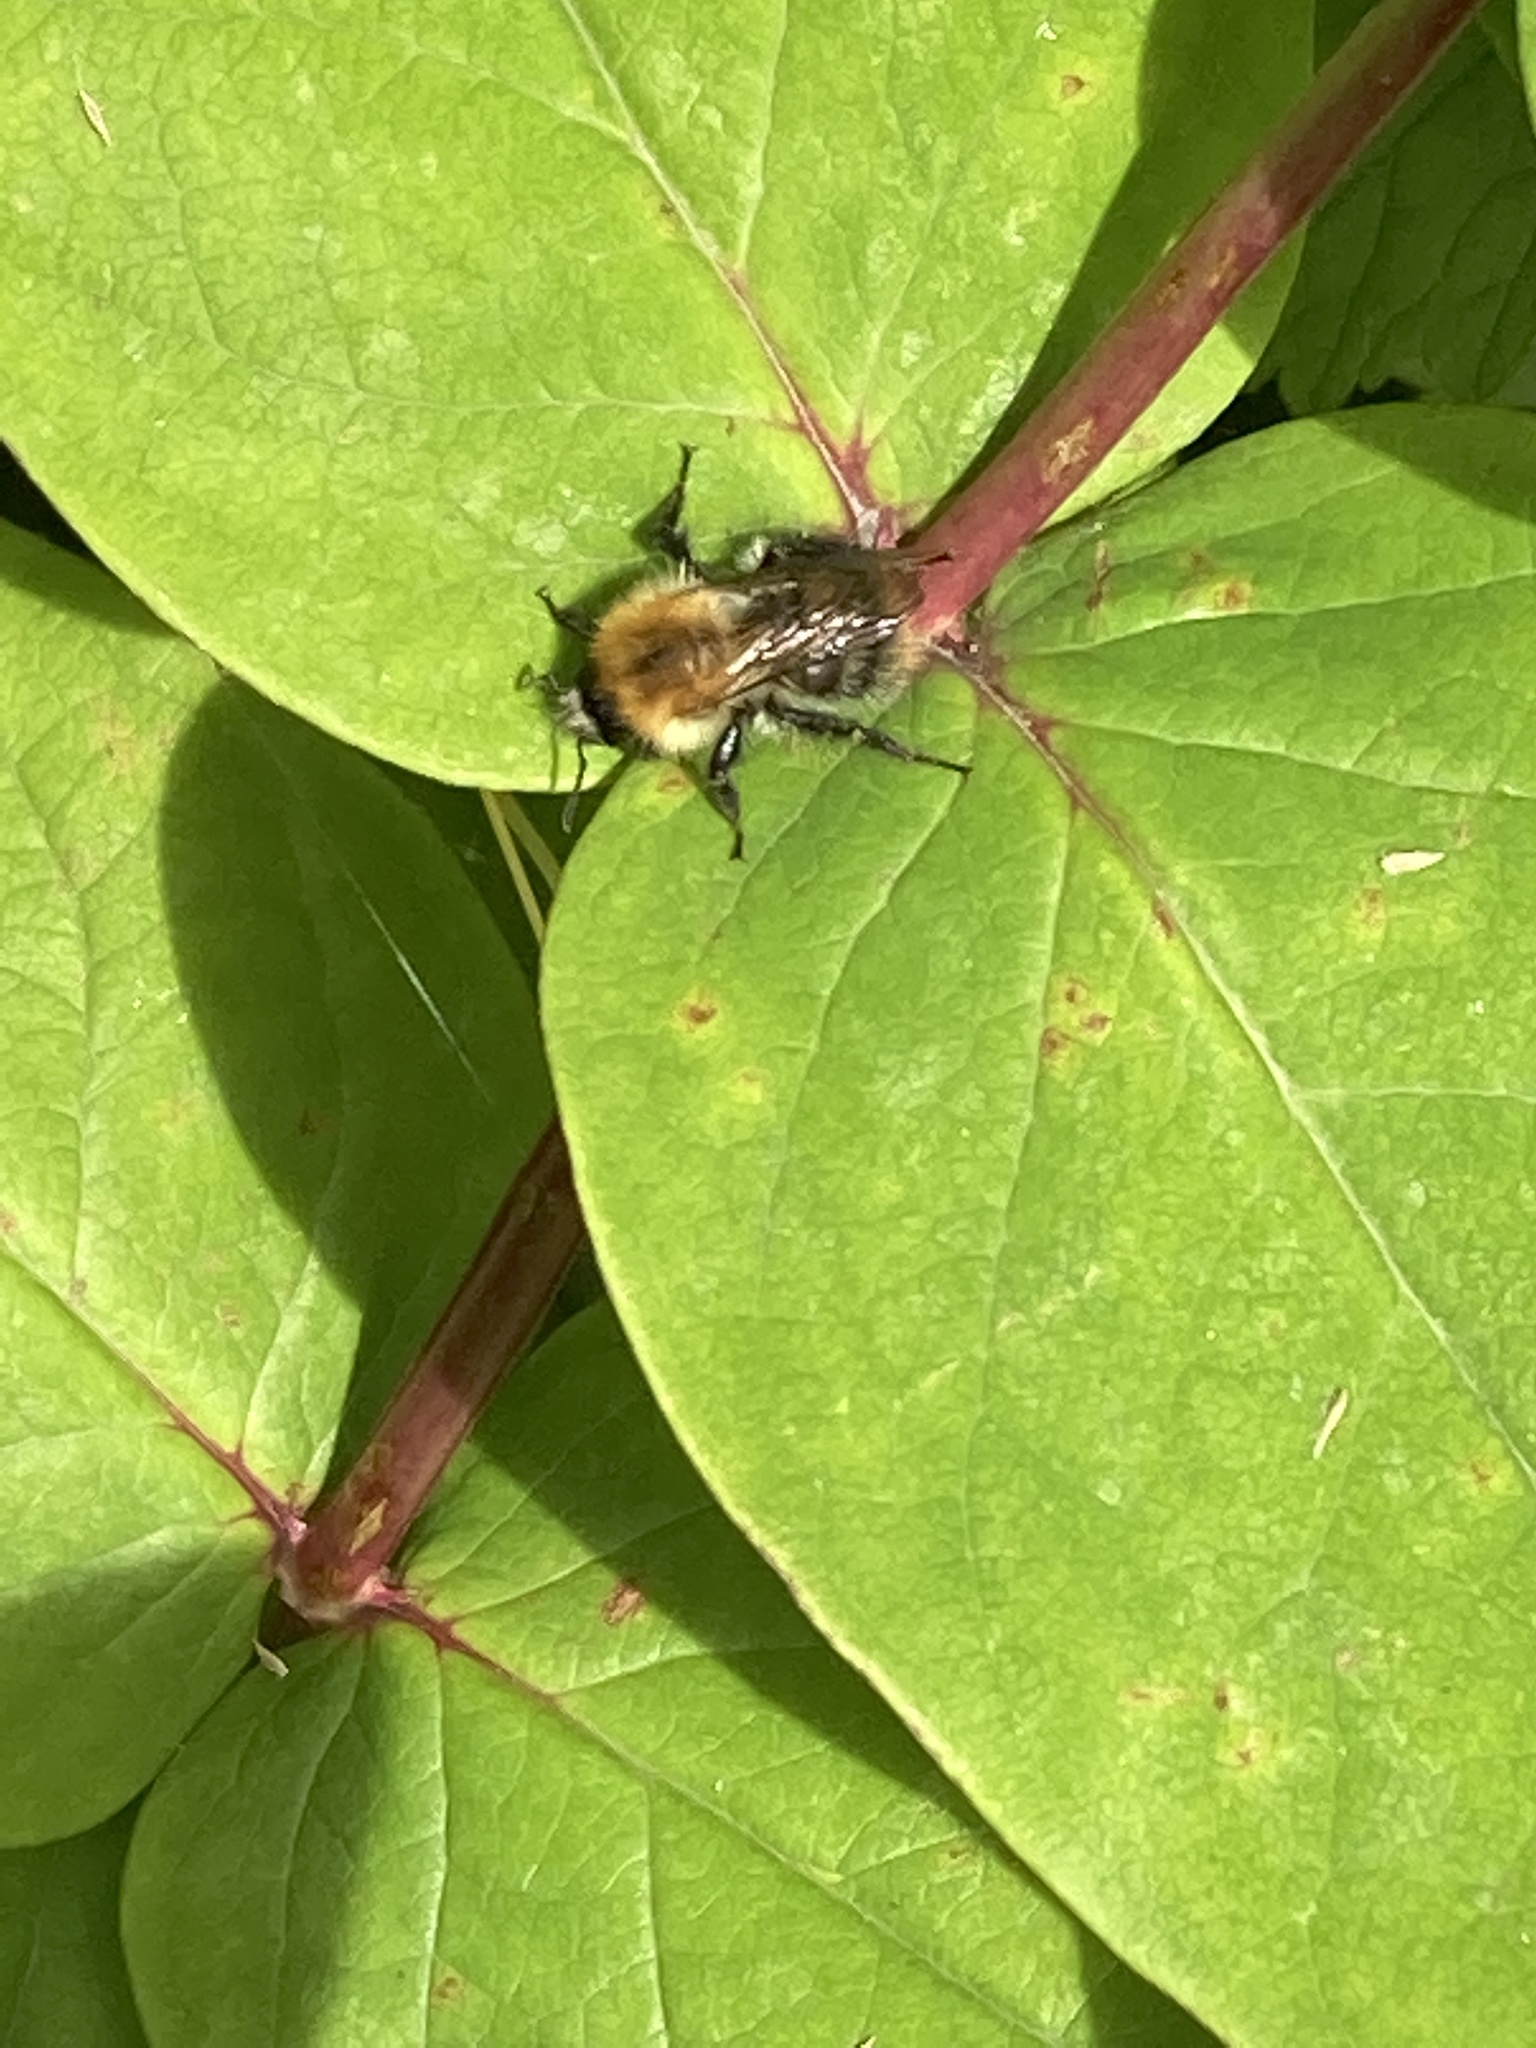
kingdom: Animalia
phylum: Arthropoda
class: Insecta
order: Hymenoptera
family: Apidae
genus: Bombus
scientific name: Bombus pascuorum
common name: Common carder bee
